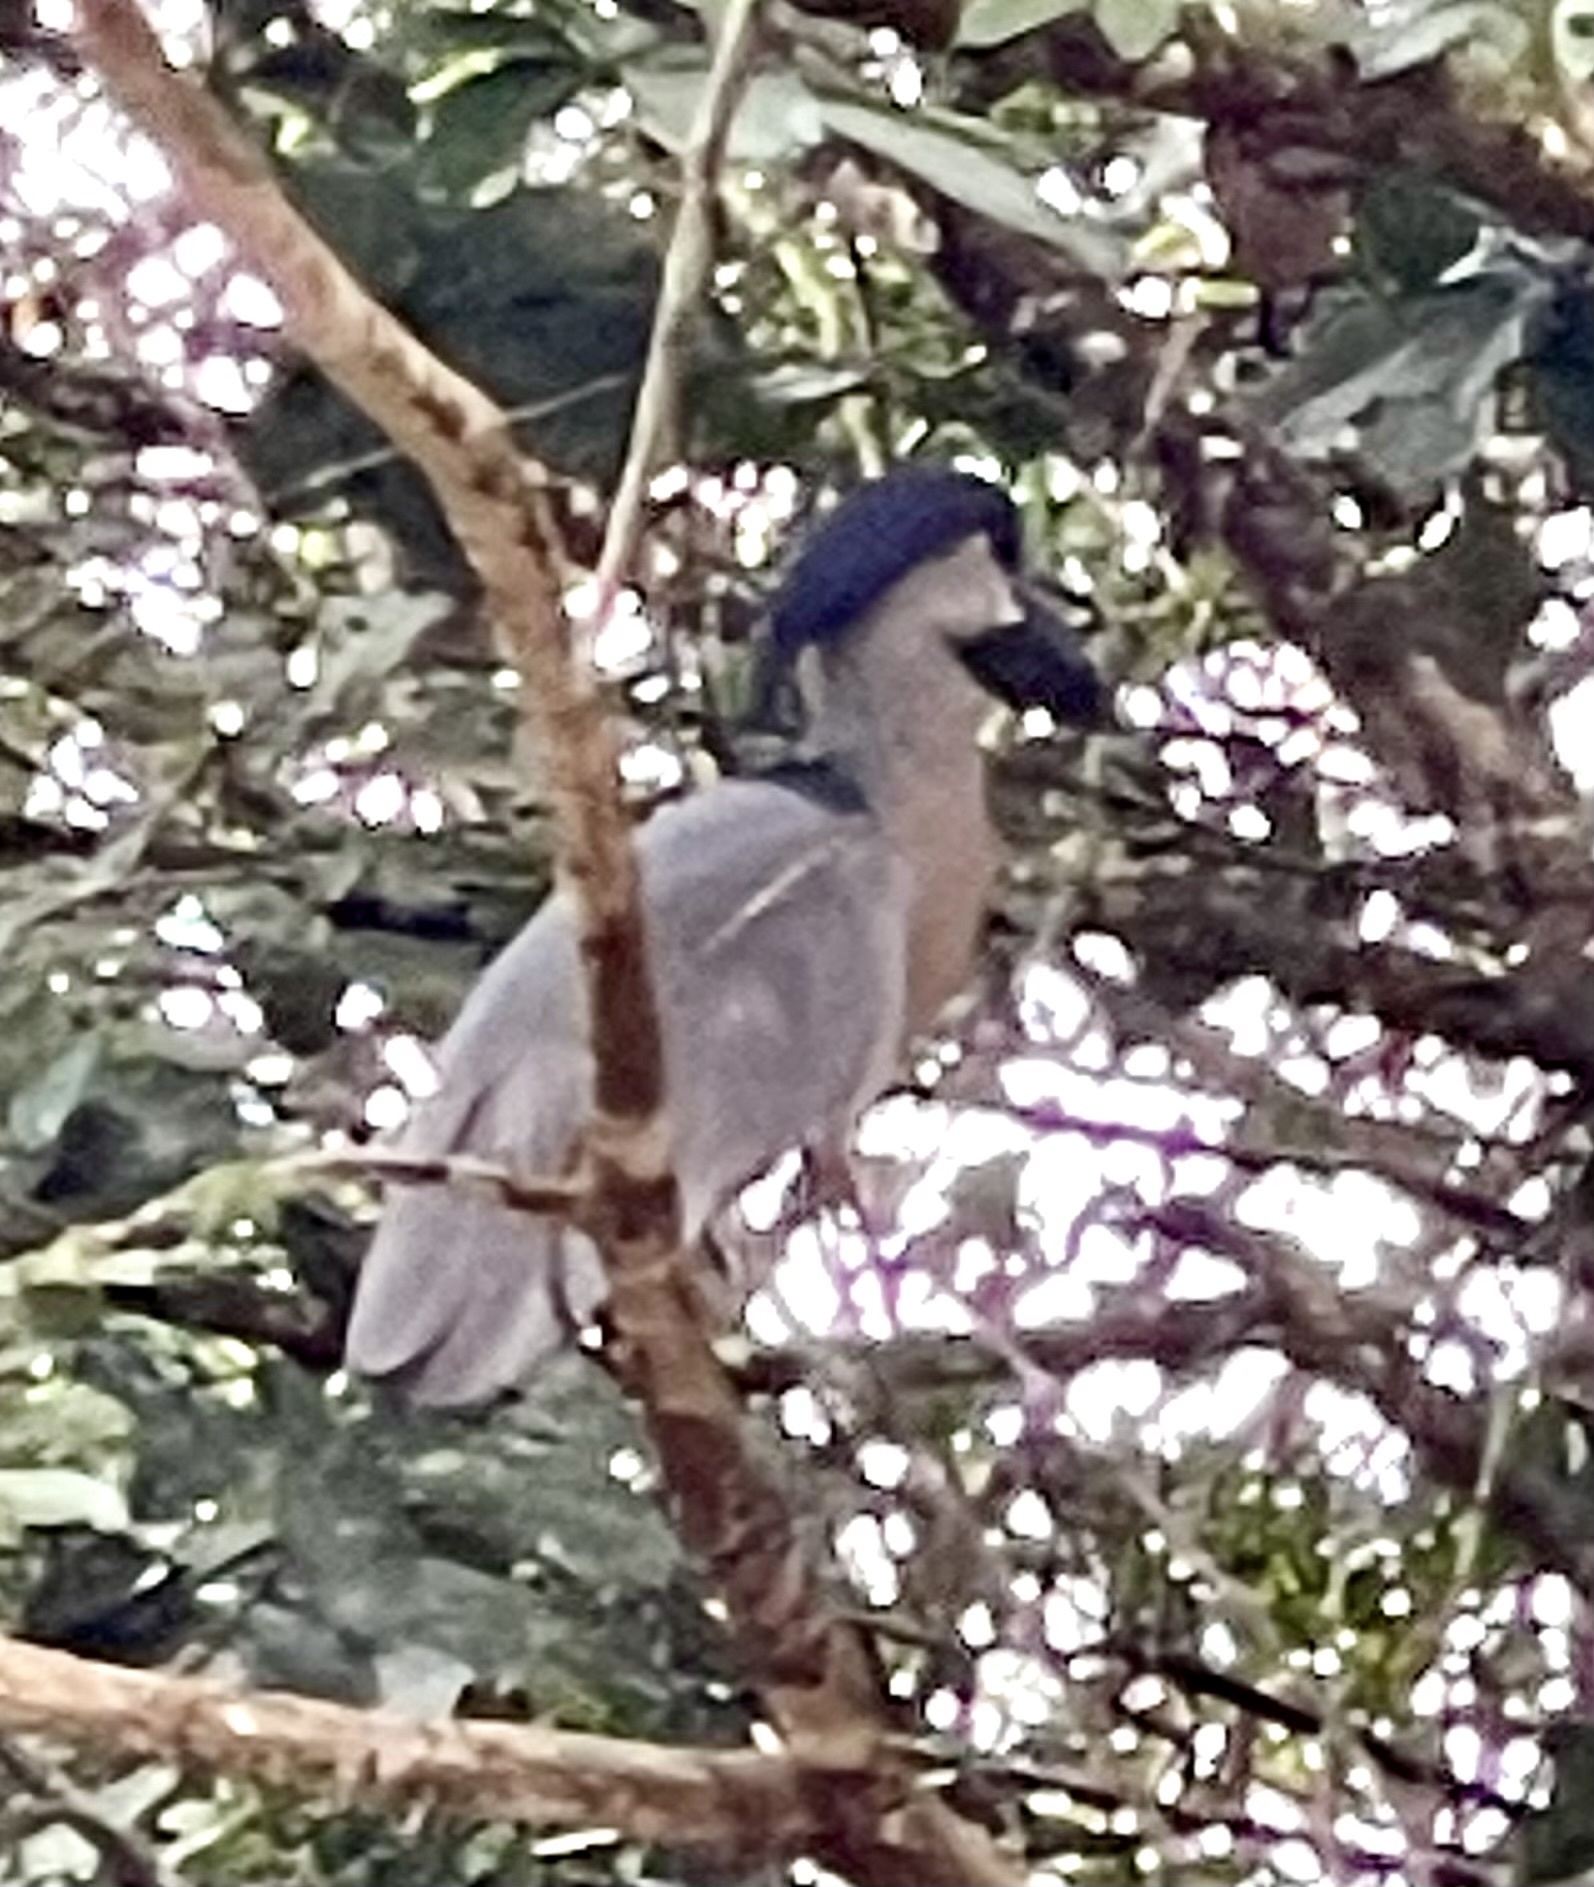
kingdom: Animalia
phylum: Chordata
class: Aves
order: Pelecaniformes
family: Ardeidae
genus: Cochlearius
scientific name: Cochlearius cochlearius
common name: Boat-billed heron
